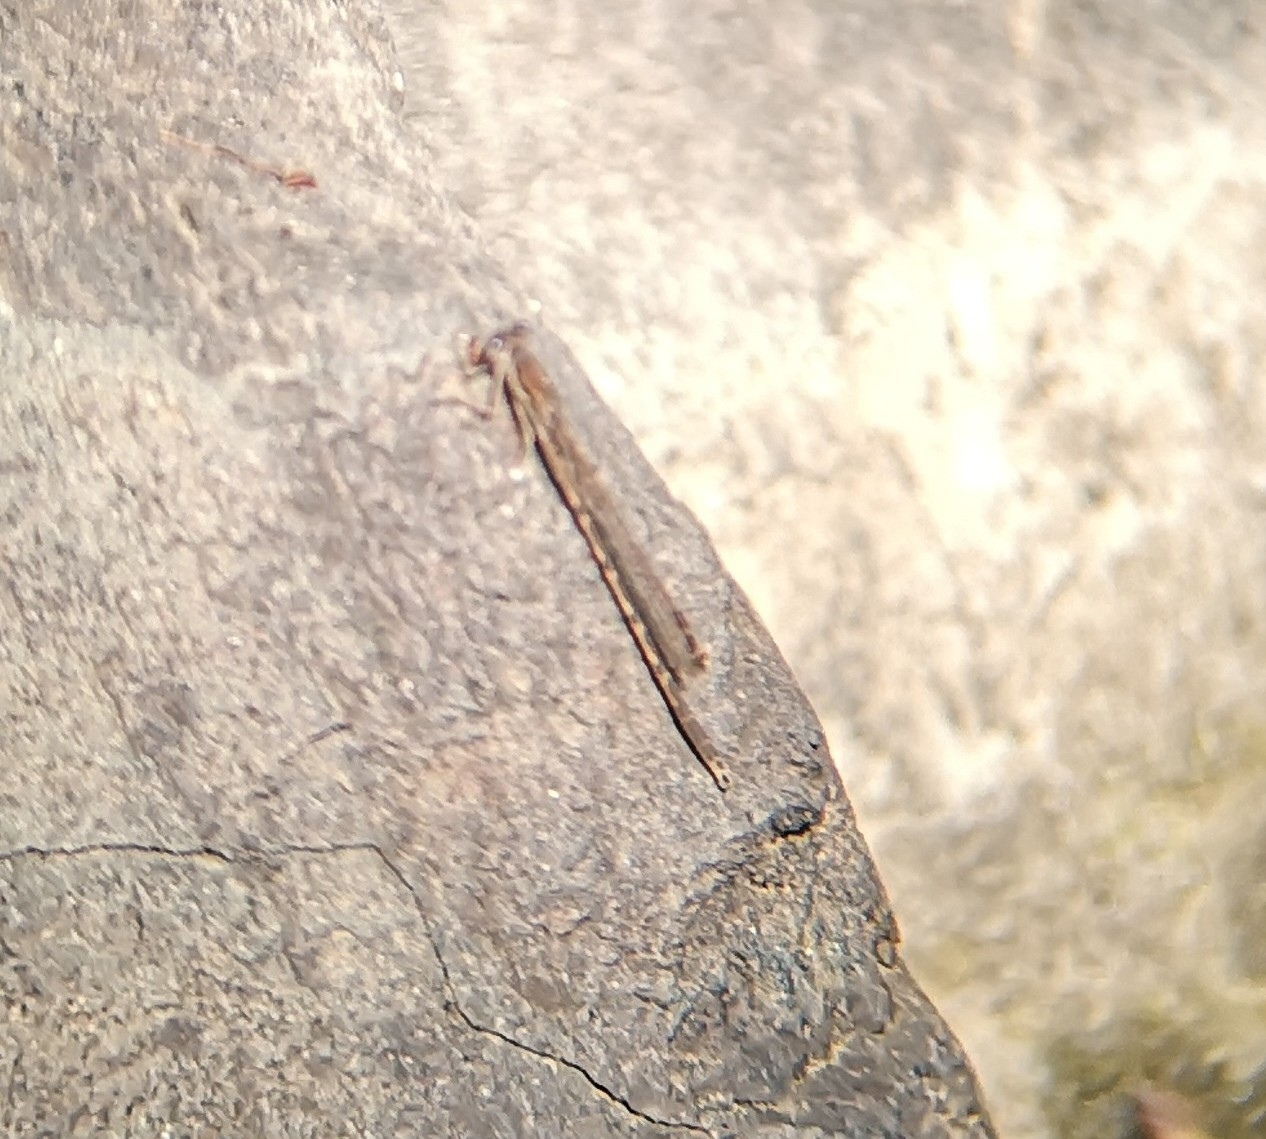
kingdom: Animalia
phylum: Arthropoda
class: Insecta
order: Odonata
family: Lestidae
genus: Sympecma
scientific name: Sympecma fusca
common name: Common winter damsel
